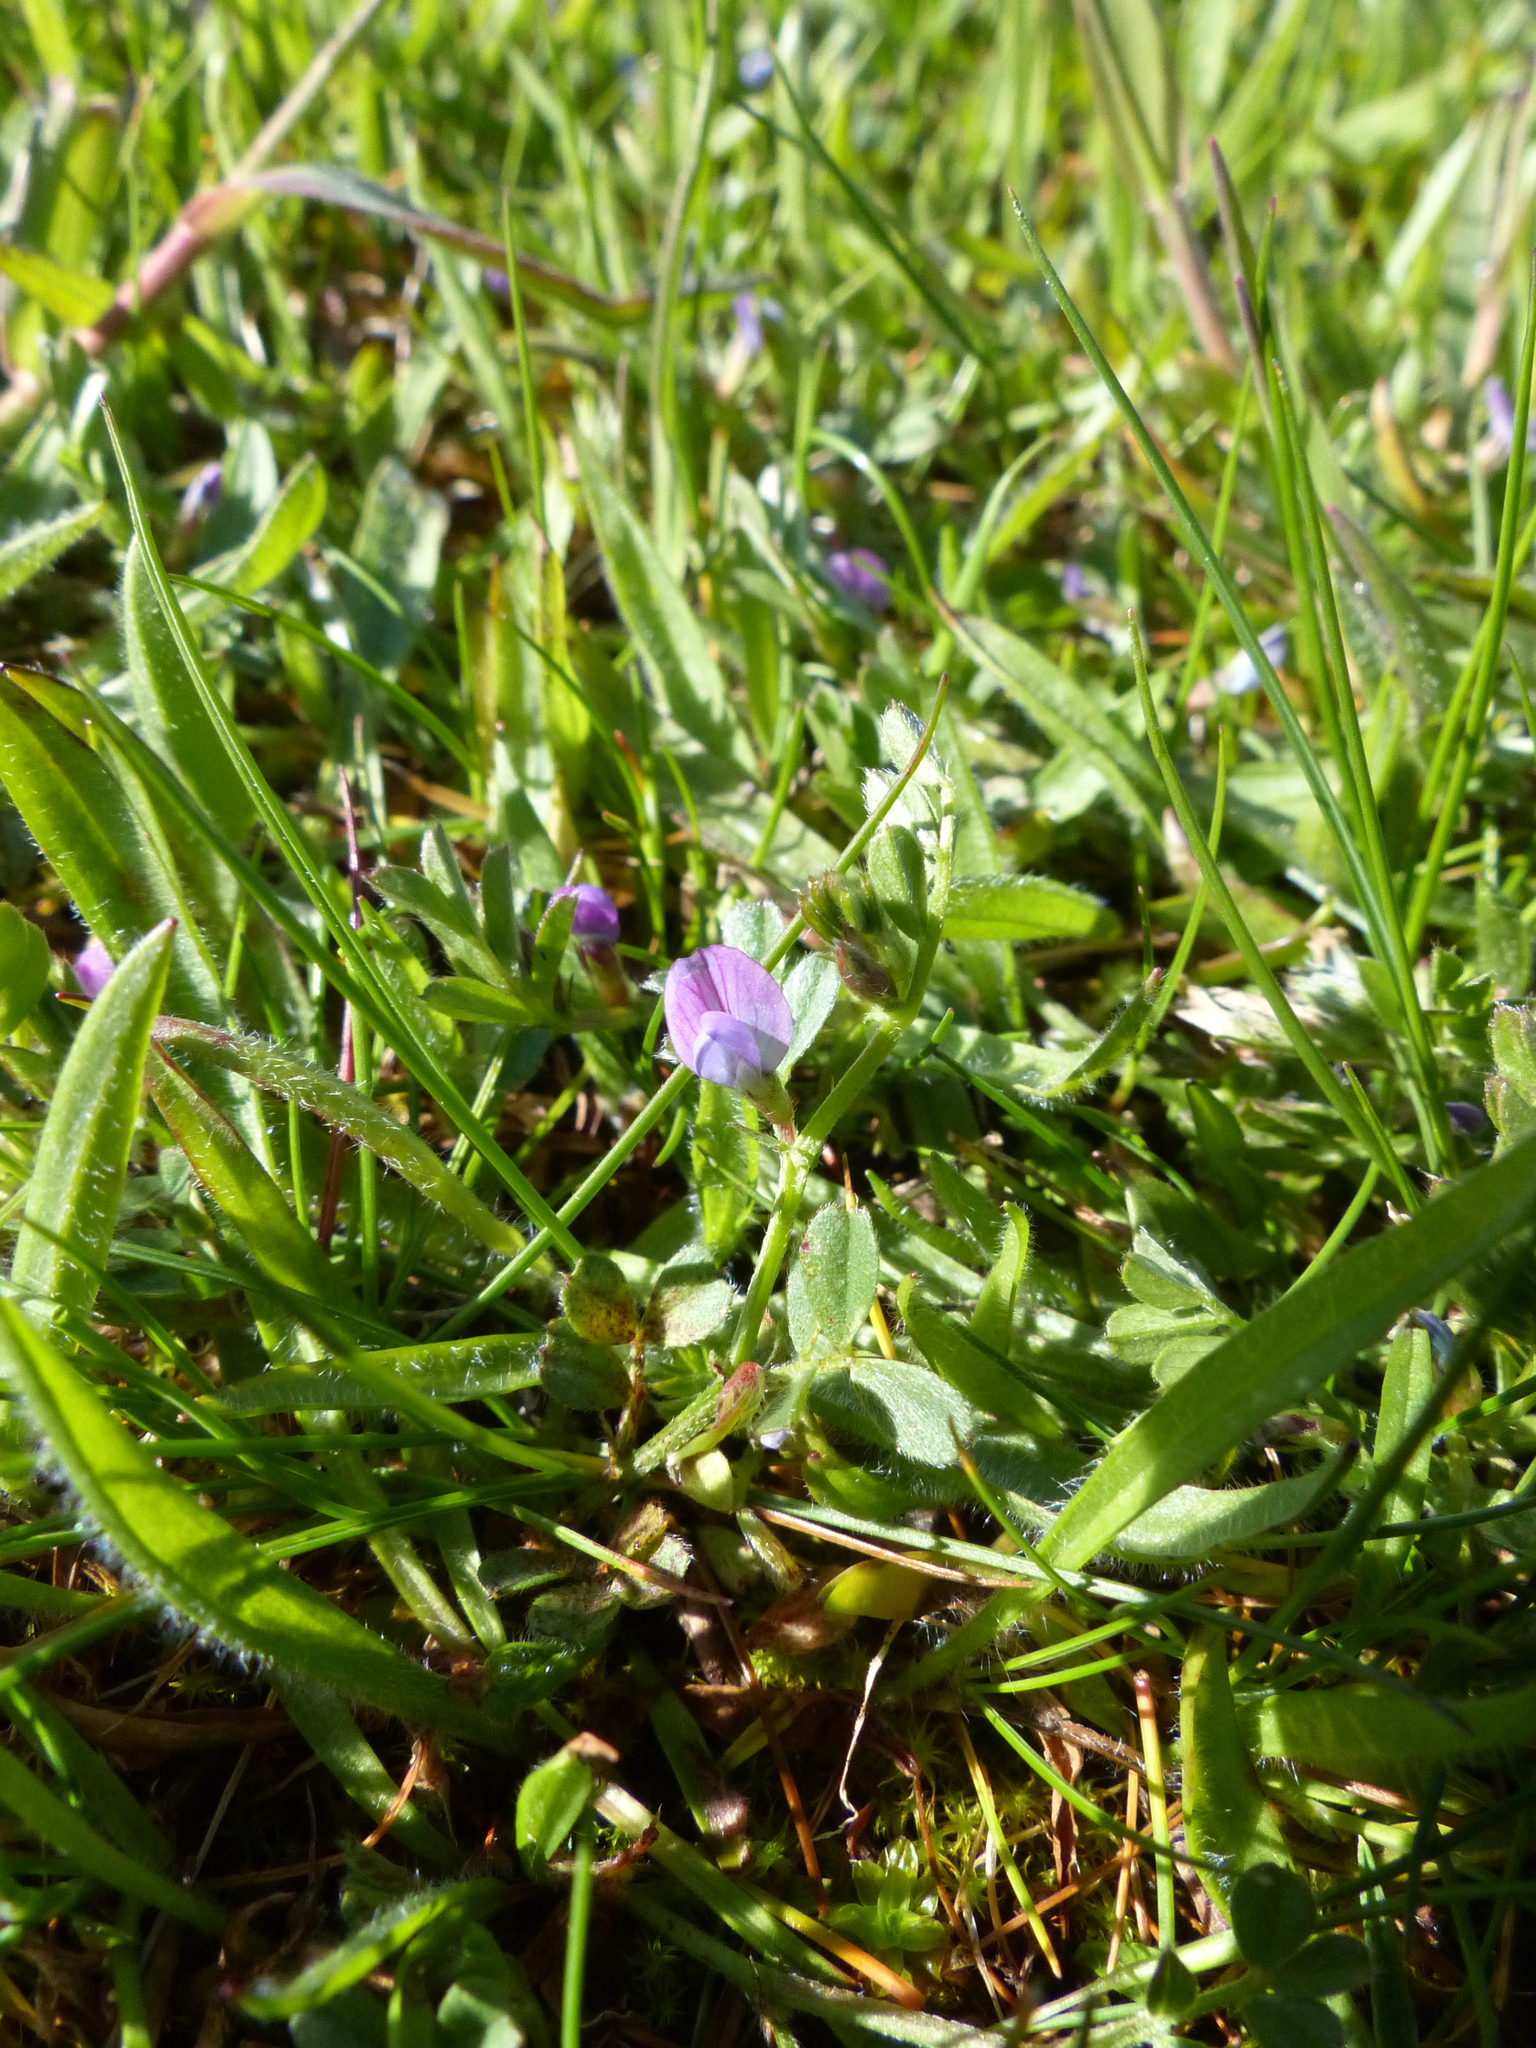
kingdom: Plantae
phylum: Tracheophyta
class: Magnoliopsida
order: Fabales
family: Fabaceae
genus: Vicia
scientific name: Vicia lathyroides
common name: Spring vetch
